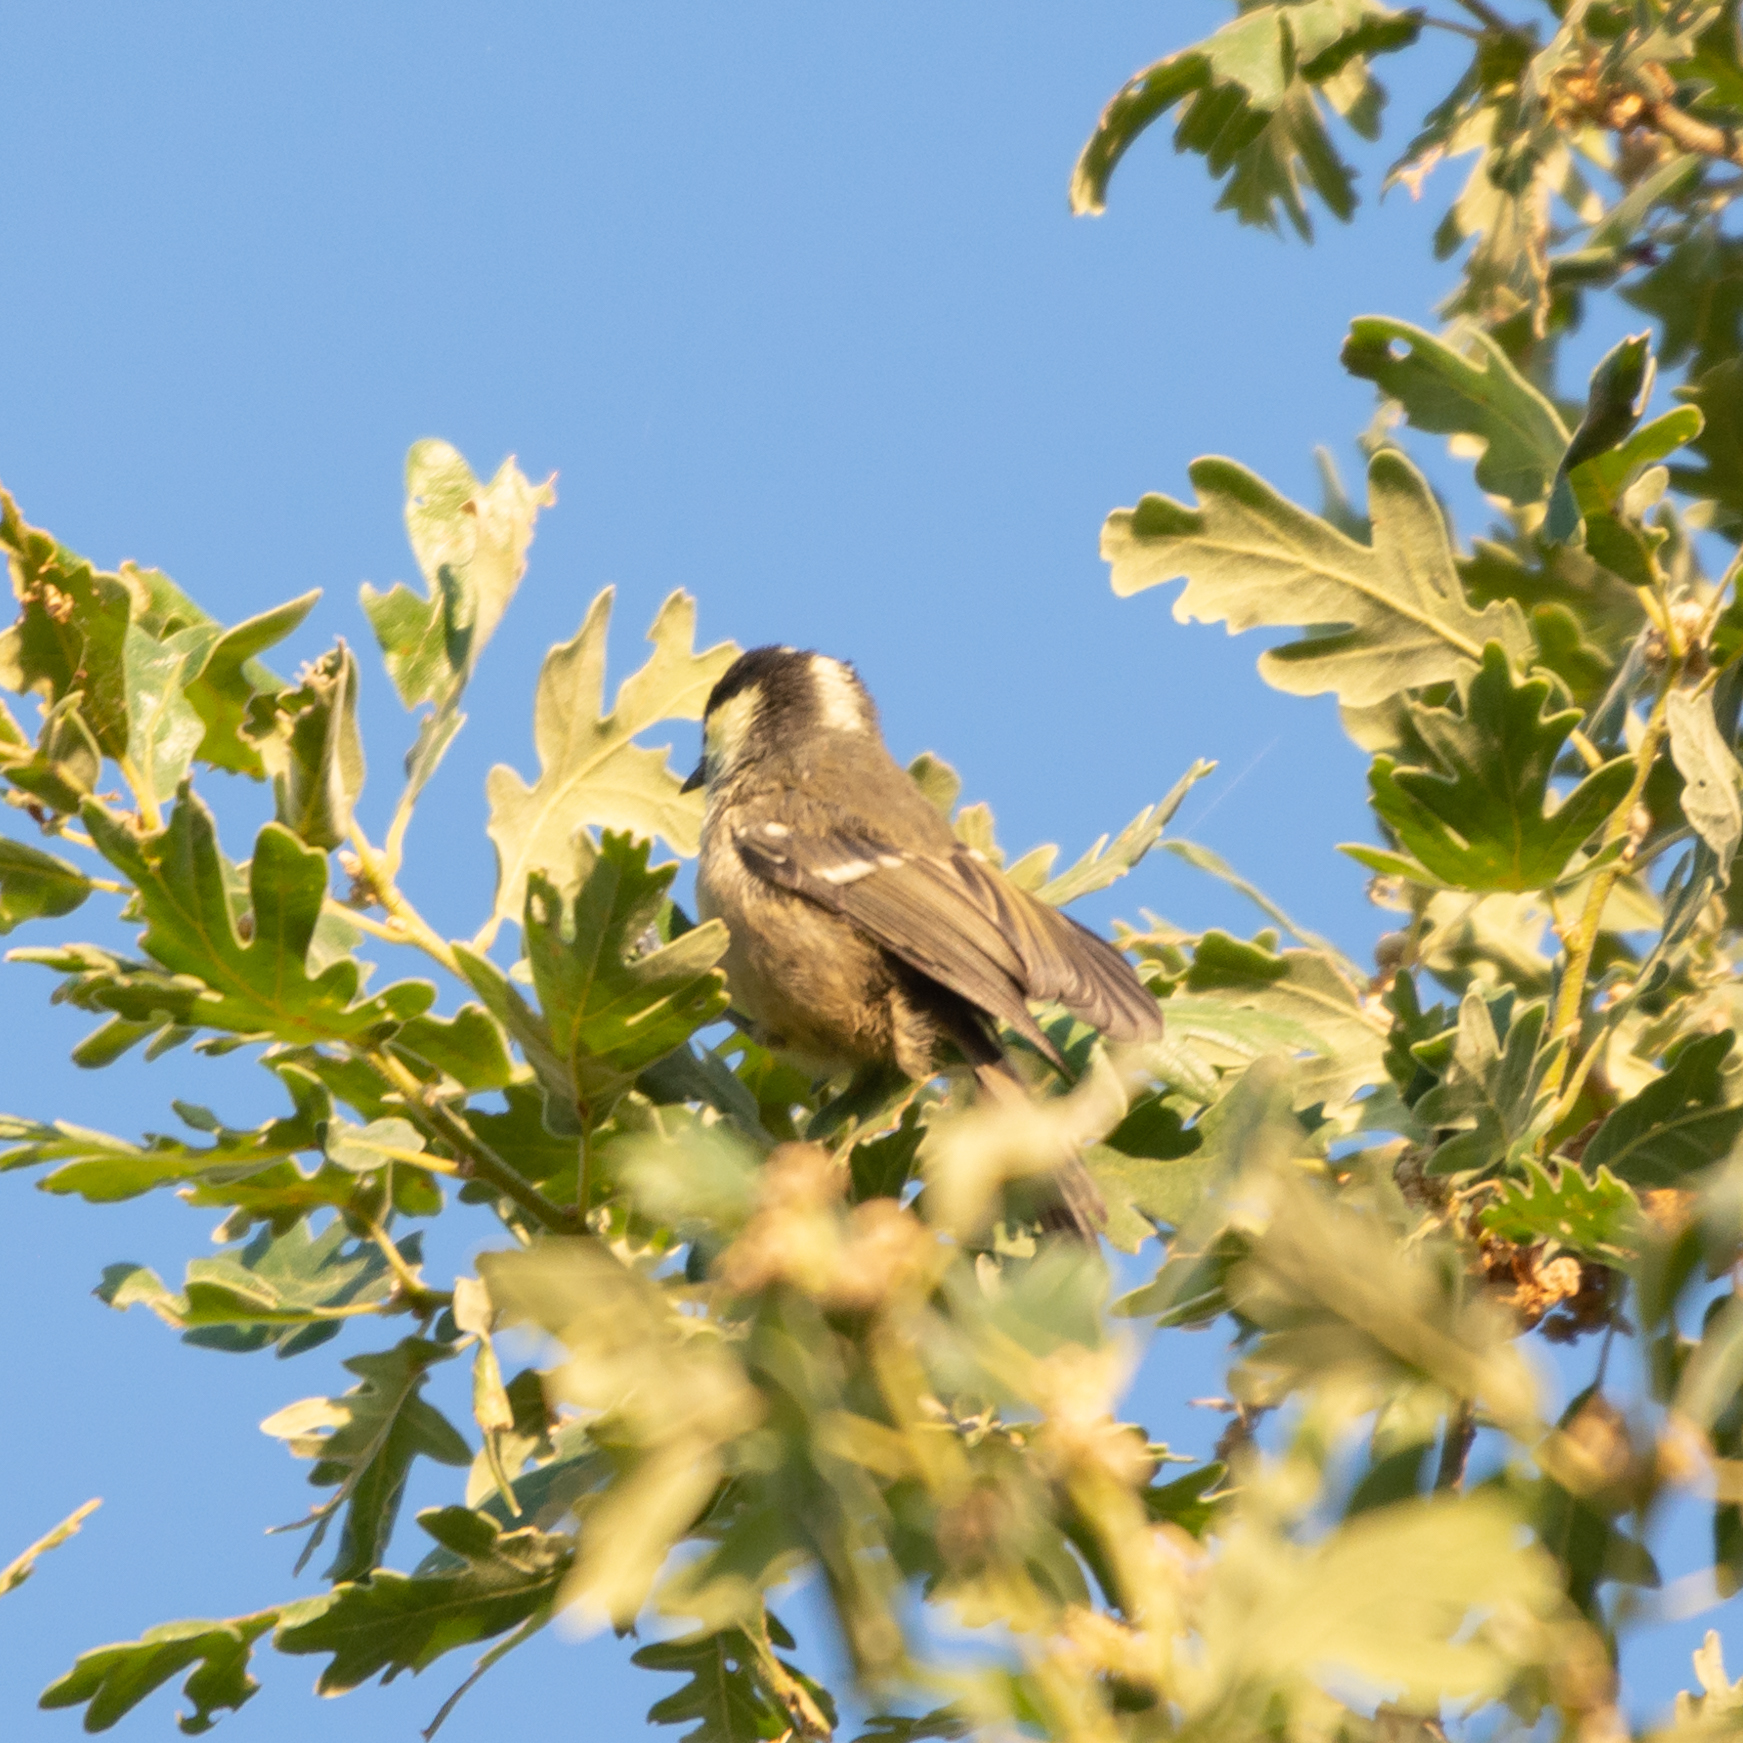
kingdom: Animalia
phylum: Chordata
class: Aves
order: Passeriformes
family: Paridae
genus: Periparus
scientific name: Periparus ater
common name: Coal tit
